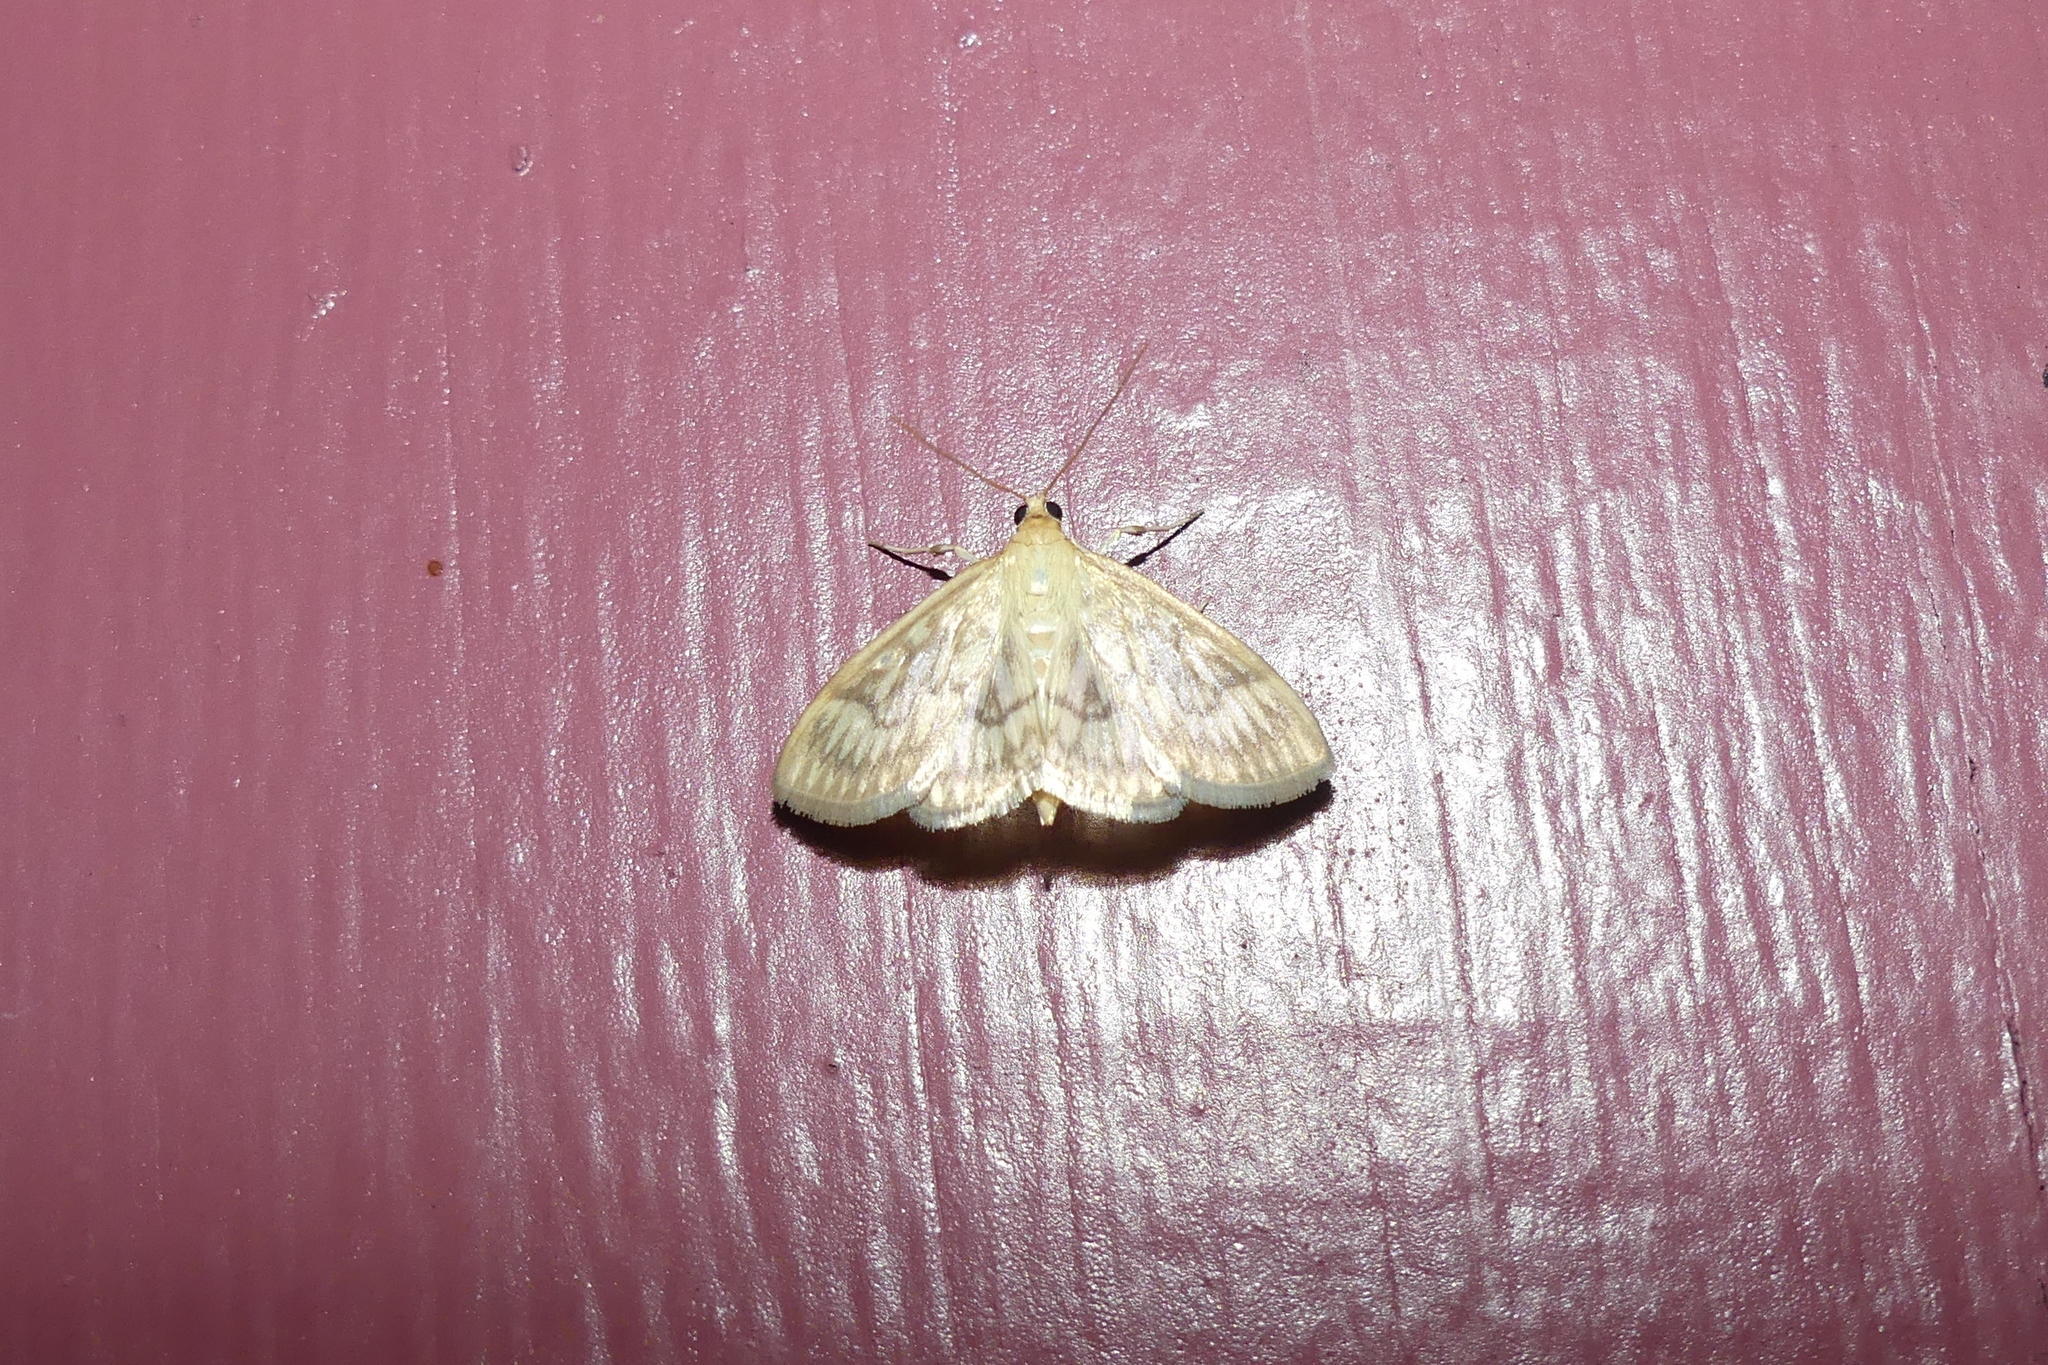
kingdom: Animalia
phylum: Arthropoda
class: Insecta
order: Lepidoptera
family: Crambidae
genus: Crocidophora
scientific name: Crocidophora serratissimalis
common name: Saw-toothed crocidophora moth
